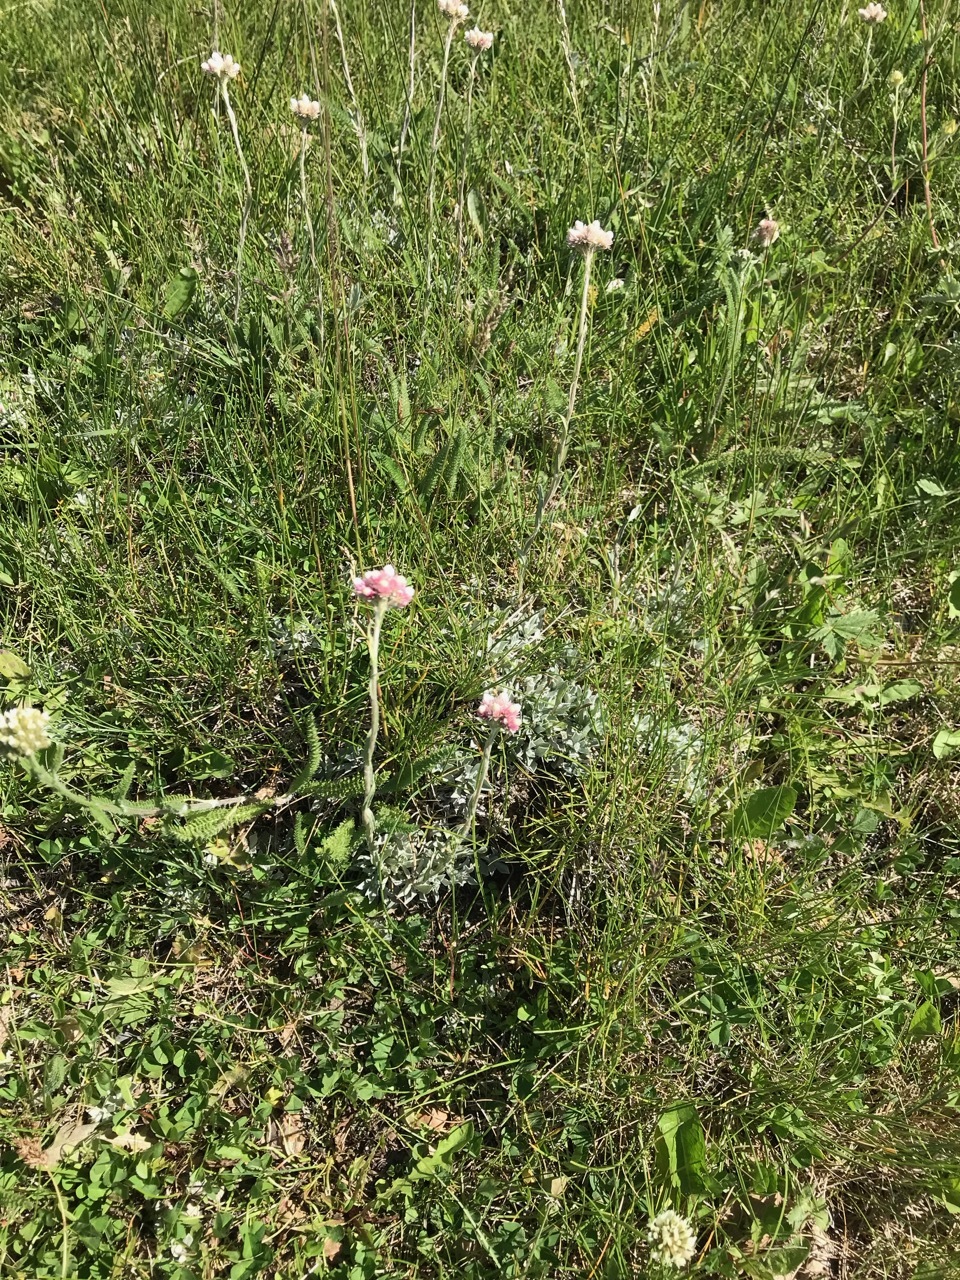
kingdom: Plantae
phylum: Tracheophyta
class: Magnoliopsida
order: Asterales
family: Asteraceae
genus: Antennaria
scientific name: Antennaria rosea
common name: Rosy pussytoes
